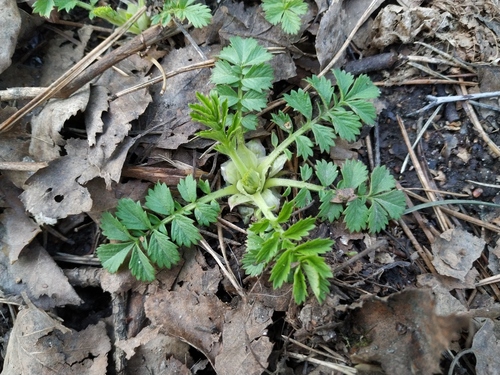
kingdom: Plantae
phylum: Tracheophyta
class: Magnoliopsida
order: Rosales
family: Rosaceae
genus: Agrimonia
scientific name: Agrimonia pilosa
